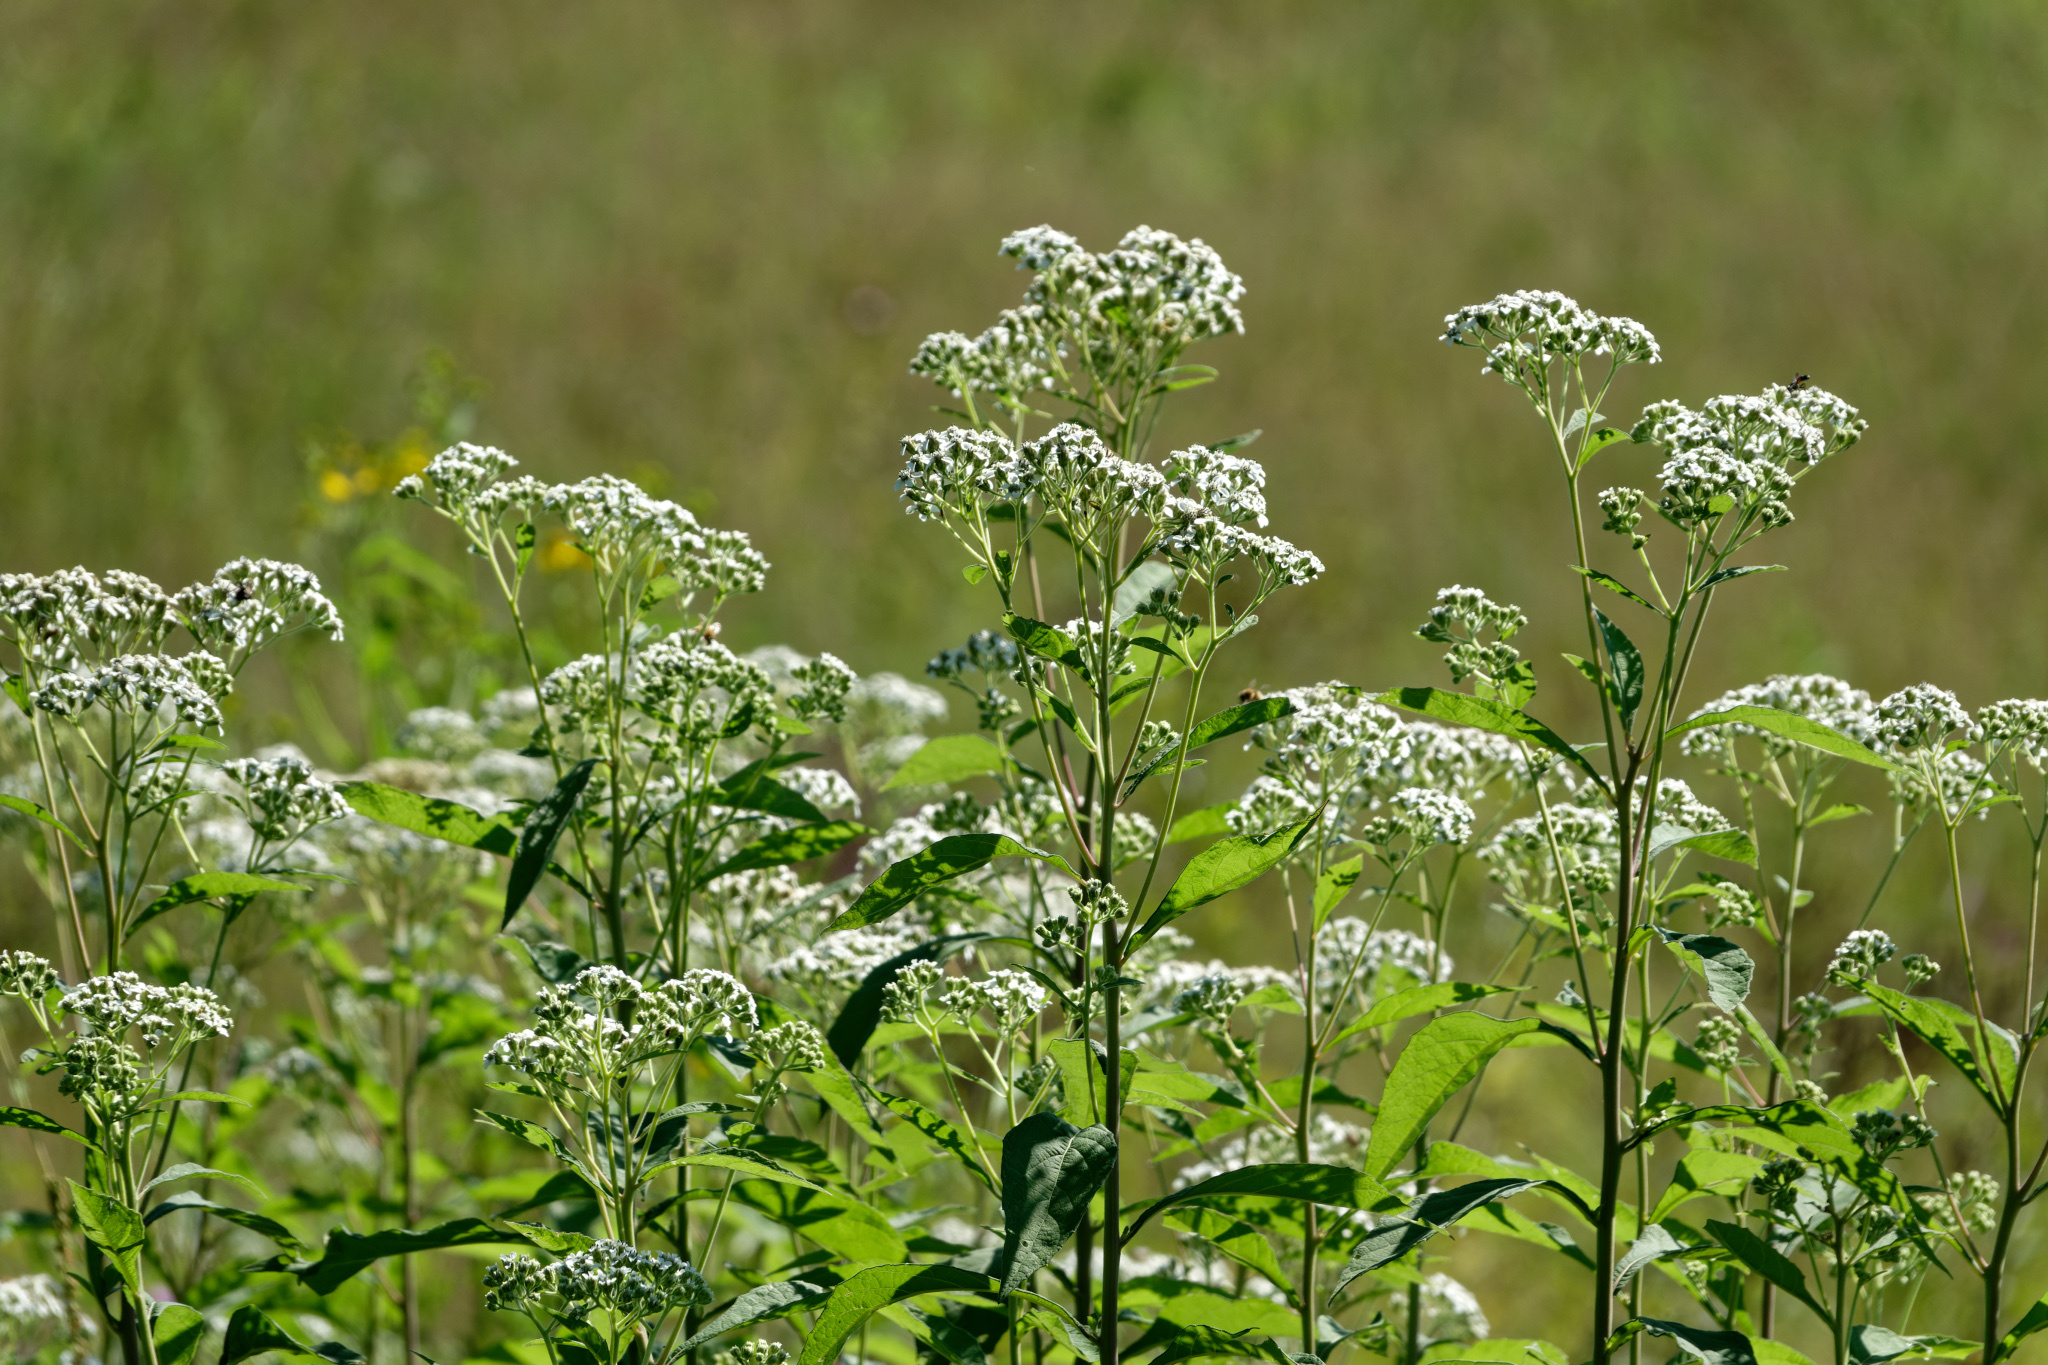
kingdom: Plantae
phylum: Tracheophyta
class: Magnoliopsida
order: Asterales
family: Asteraceae
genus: Eupatorium
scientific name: Eupatorium serotinum
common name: Late boneset
